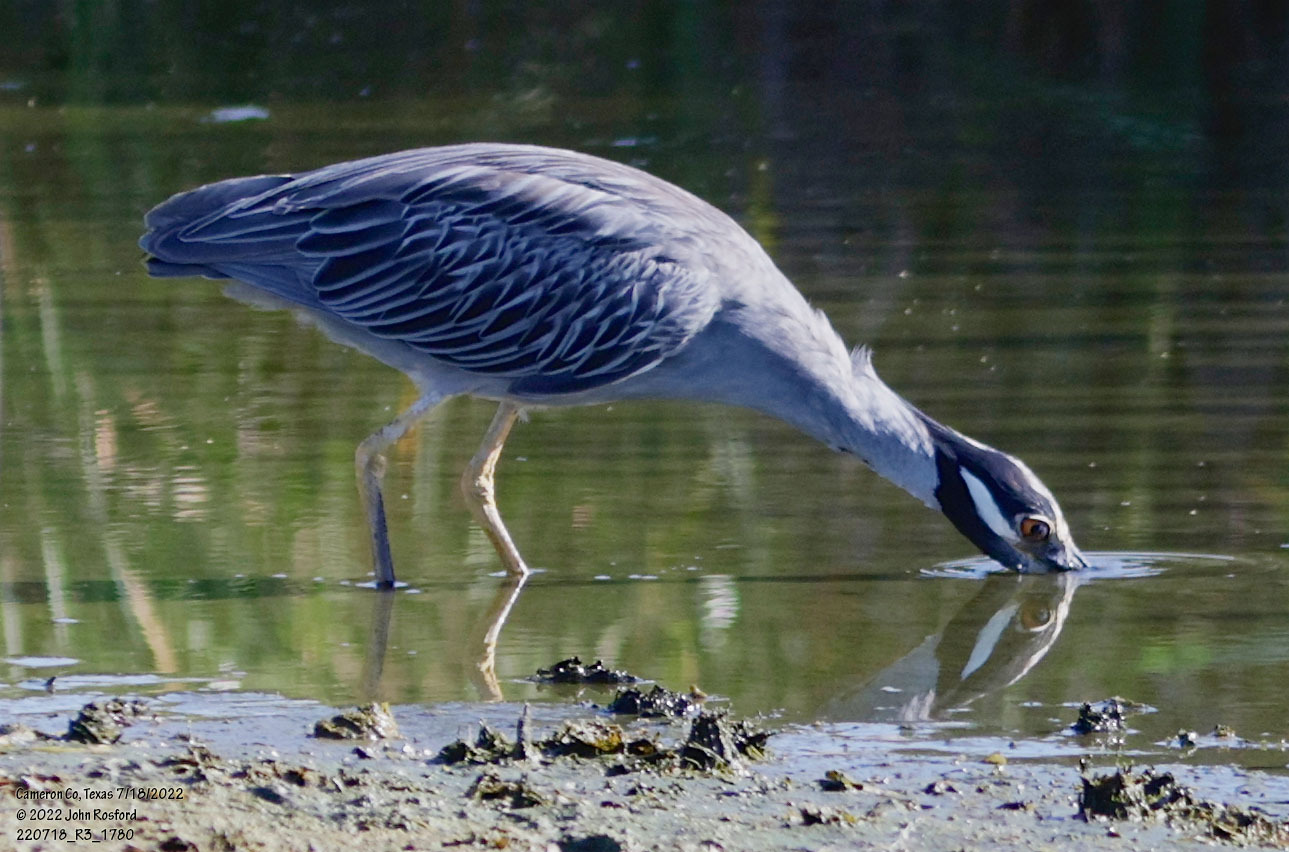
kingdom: Animalia
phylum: Chordata
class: Aves
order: Pelecaniformes
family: Ardeidae
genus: Nyctanassa
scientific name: Nyctanassa violacea
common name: Yellow-crowned night heron
